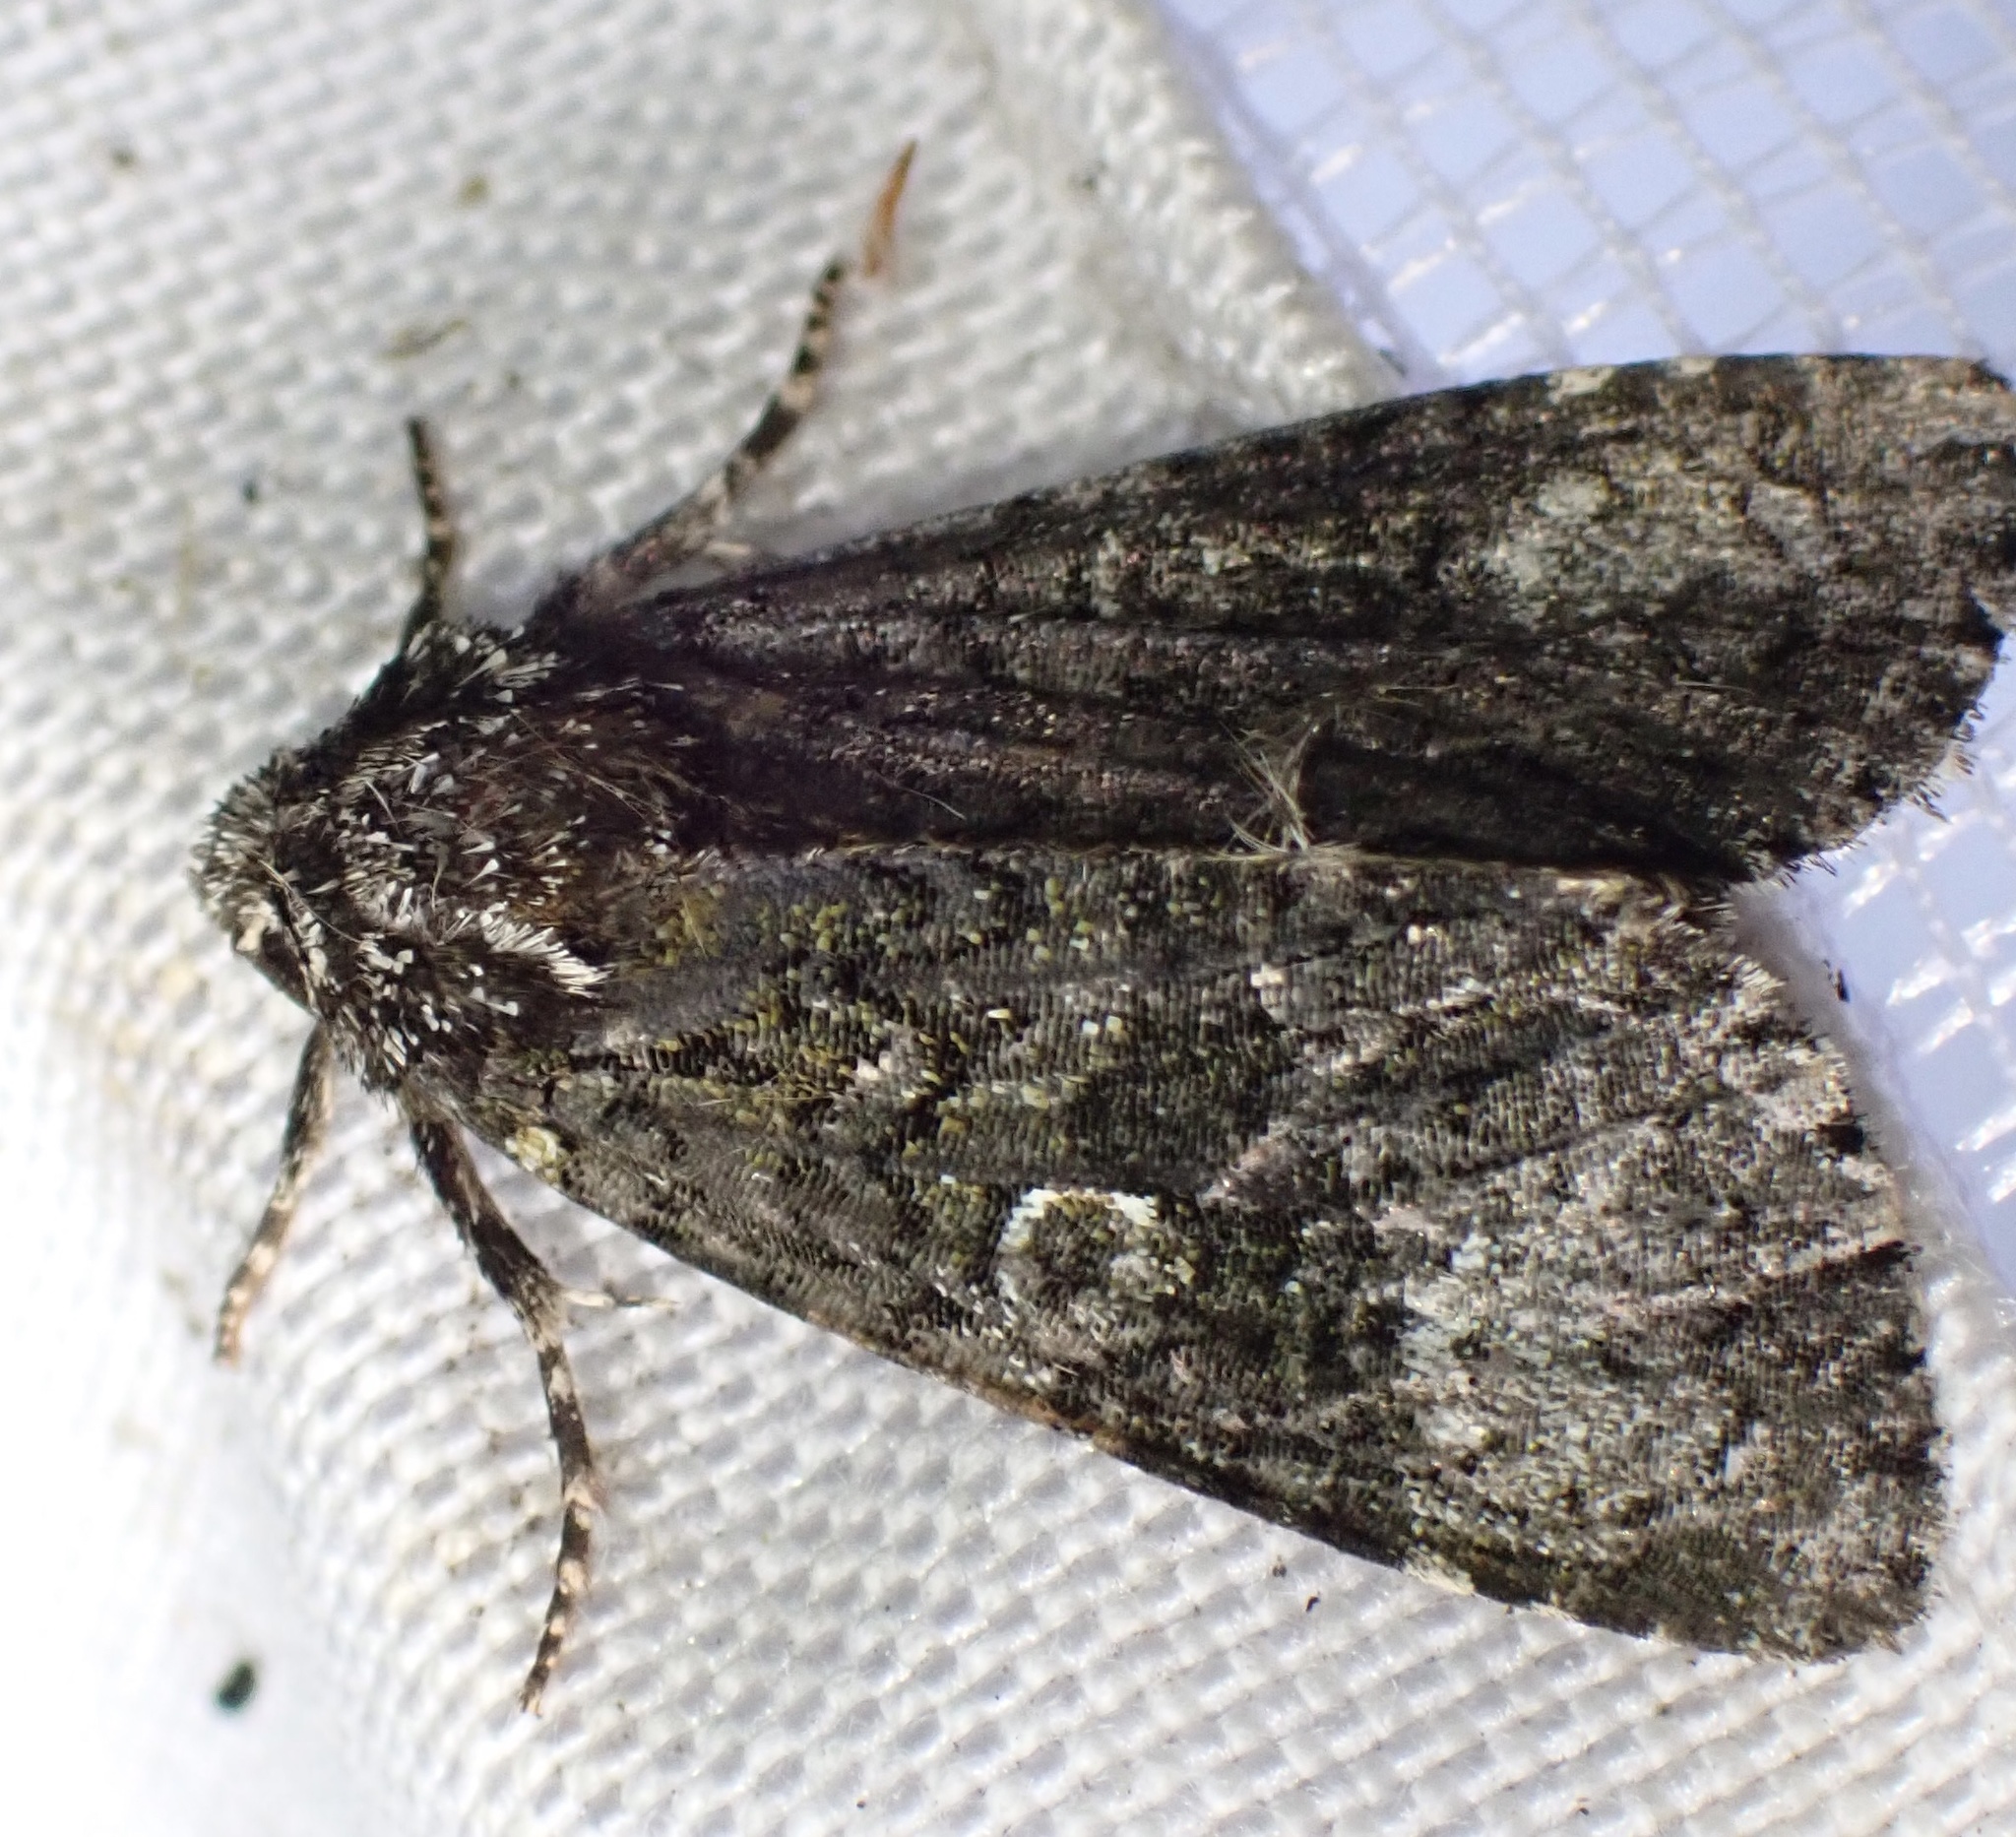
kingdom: Animalia
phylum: Arthropoda
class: Insecta
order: Lepidoptera
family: Noctuidae
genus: Craniophora
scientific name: Craniophora ligustri
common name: Coronet
